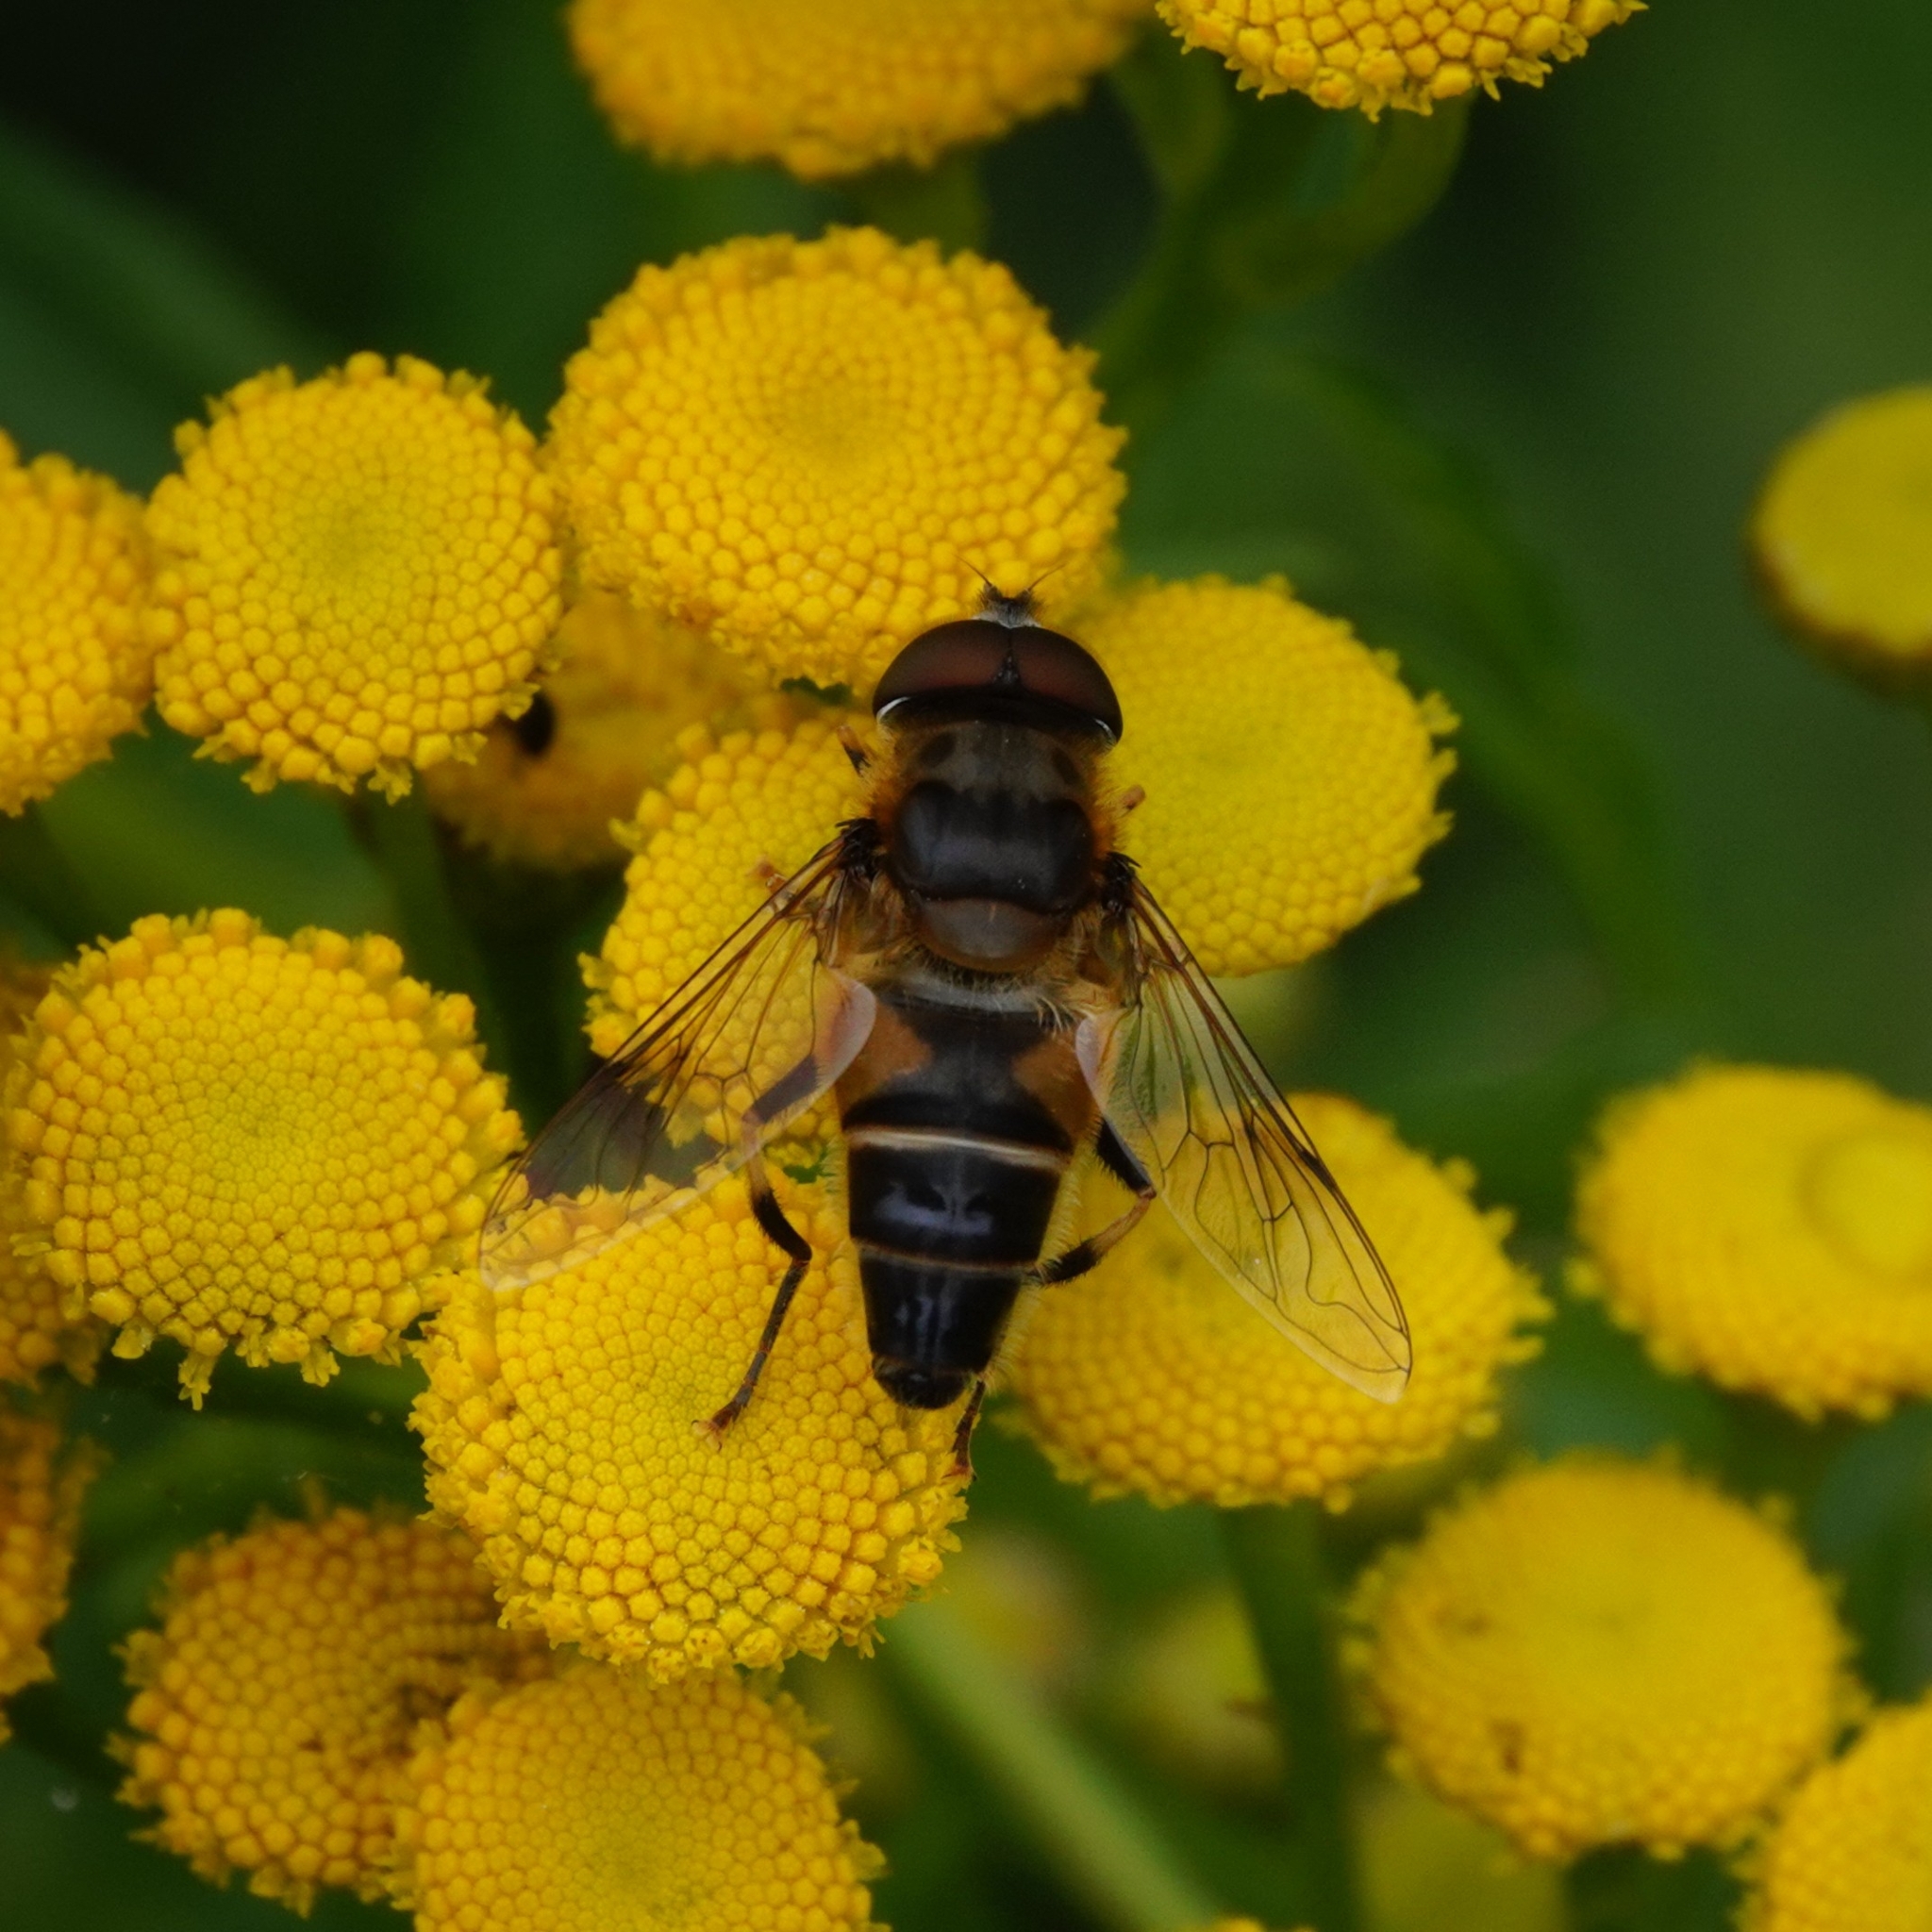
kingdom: Animalia
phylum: Arthropoda
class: Insecta
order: Diptera
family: Syrphidae
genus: Eristalis
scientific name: Eristalis pertinax
